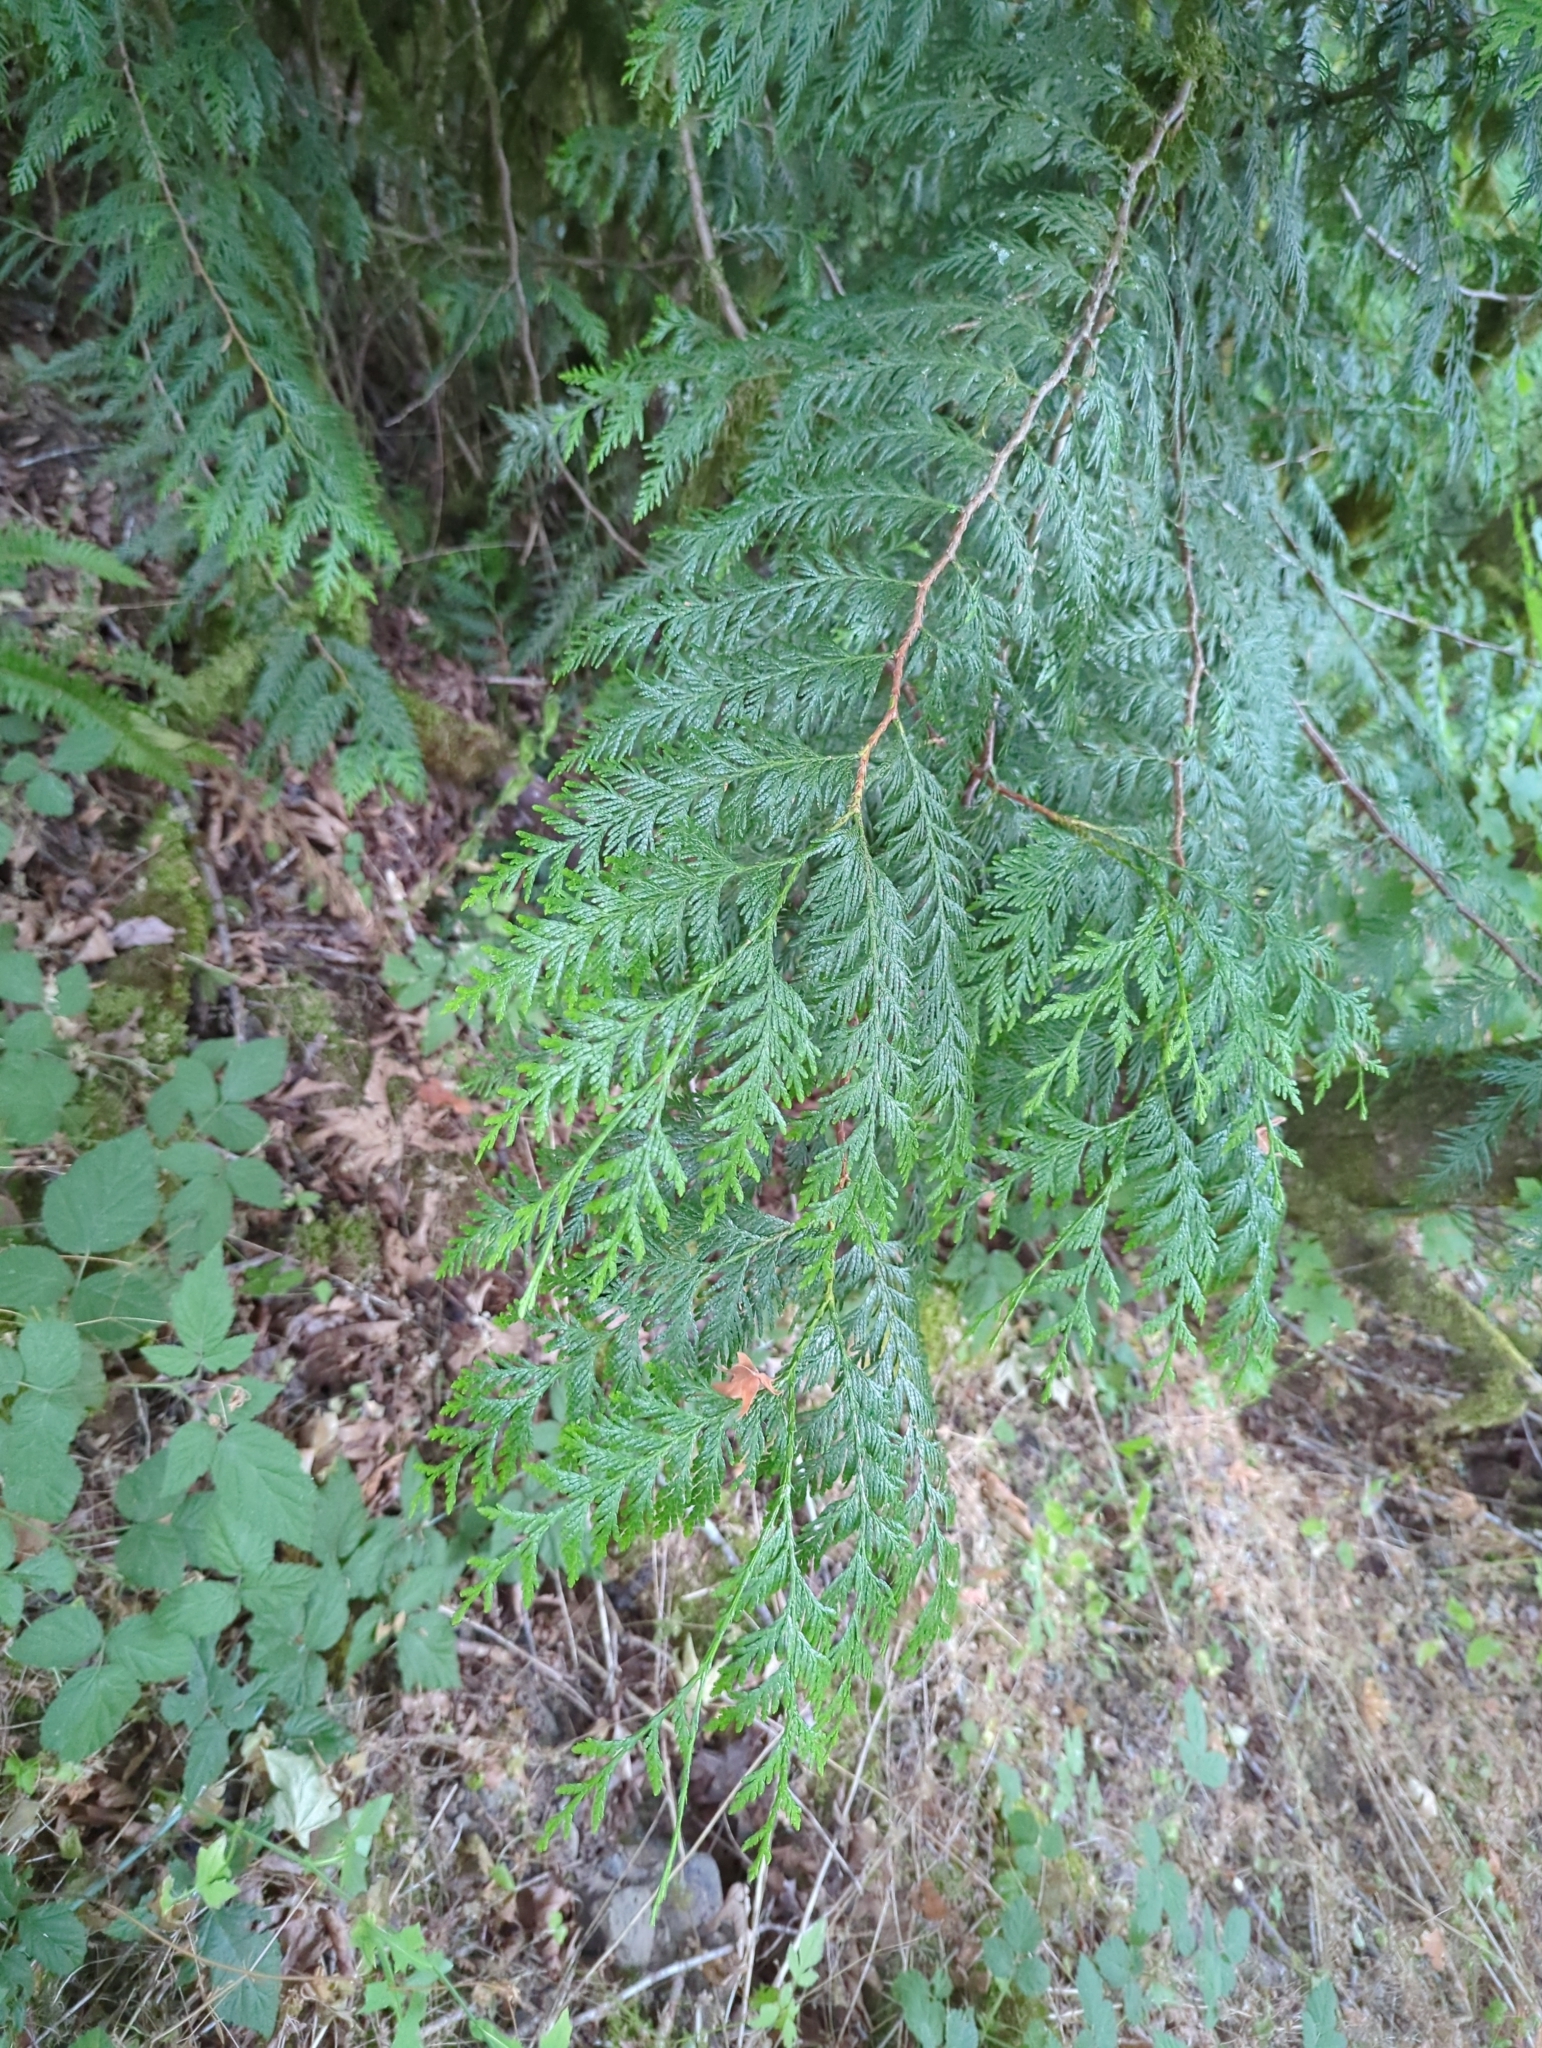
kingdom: Plantae
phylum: Tracheophyta
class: Pinopsida
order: Pinales
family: Cupressaceae
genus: Thuja
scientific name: Thuja plicata
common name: Western red-cedar
